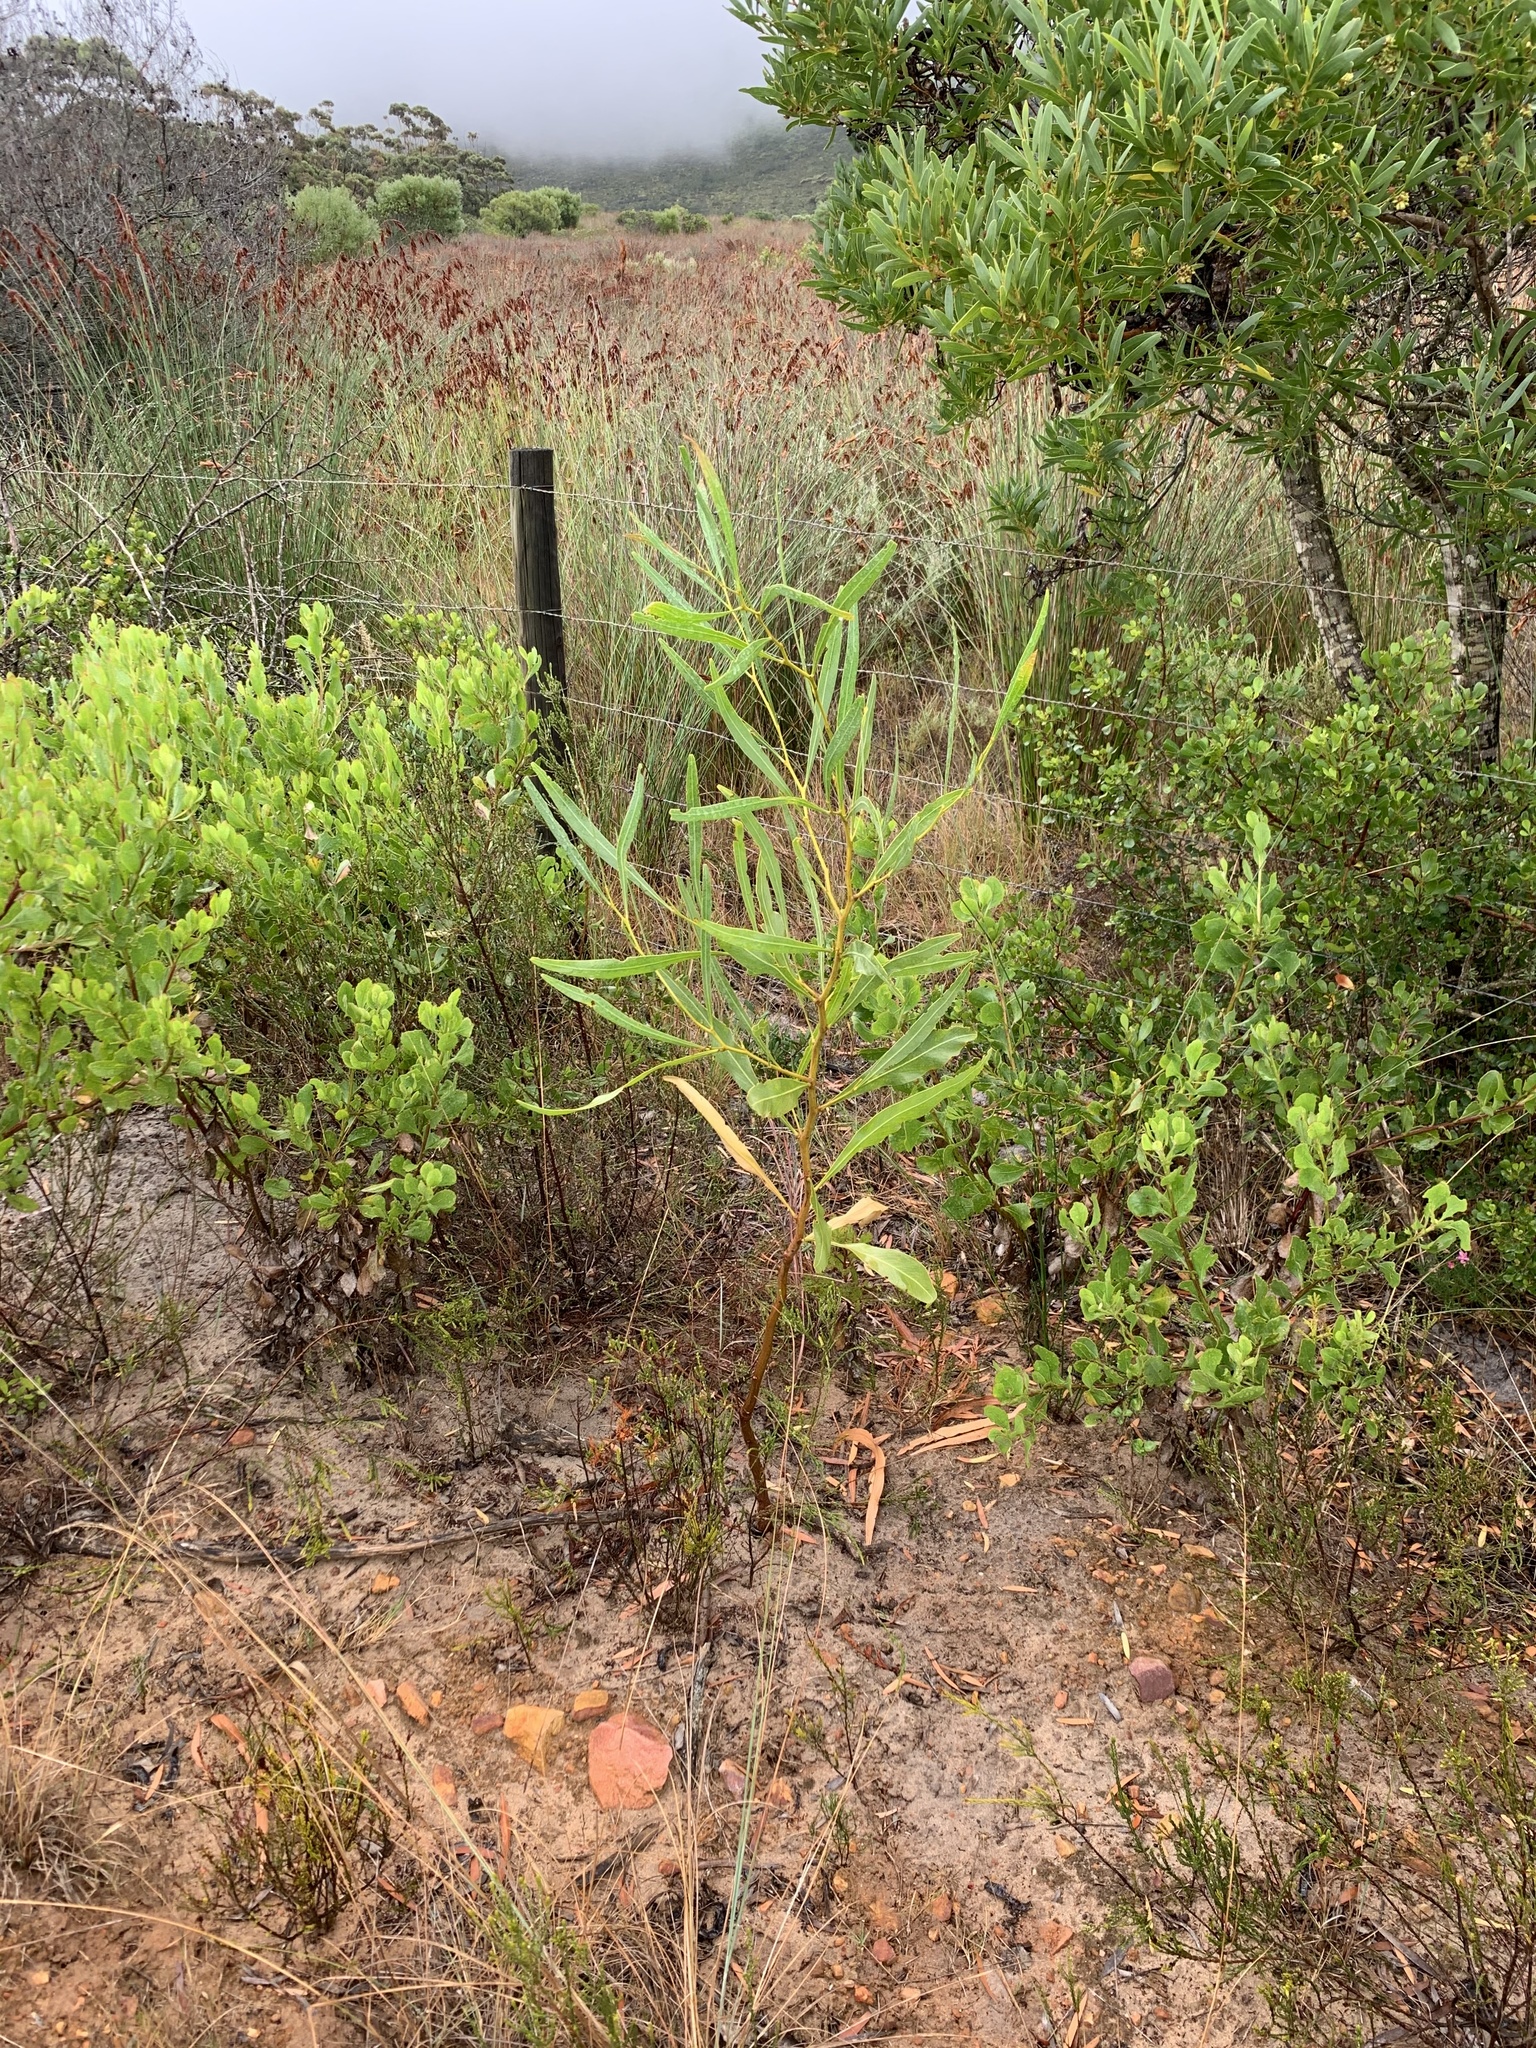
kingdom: Plantae
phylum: Tracheophyta
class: Magnoliopsida
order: Fabales
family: Fabaceae
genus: Acacia
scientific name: Acacia saligna
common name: Orange wattle
